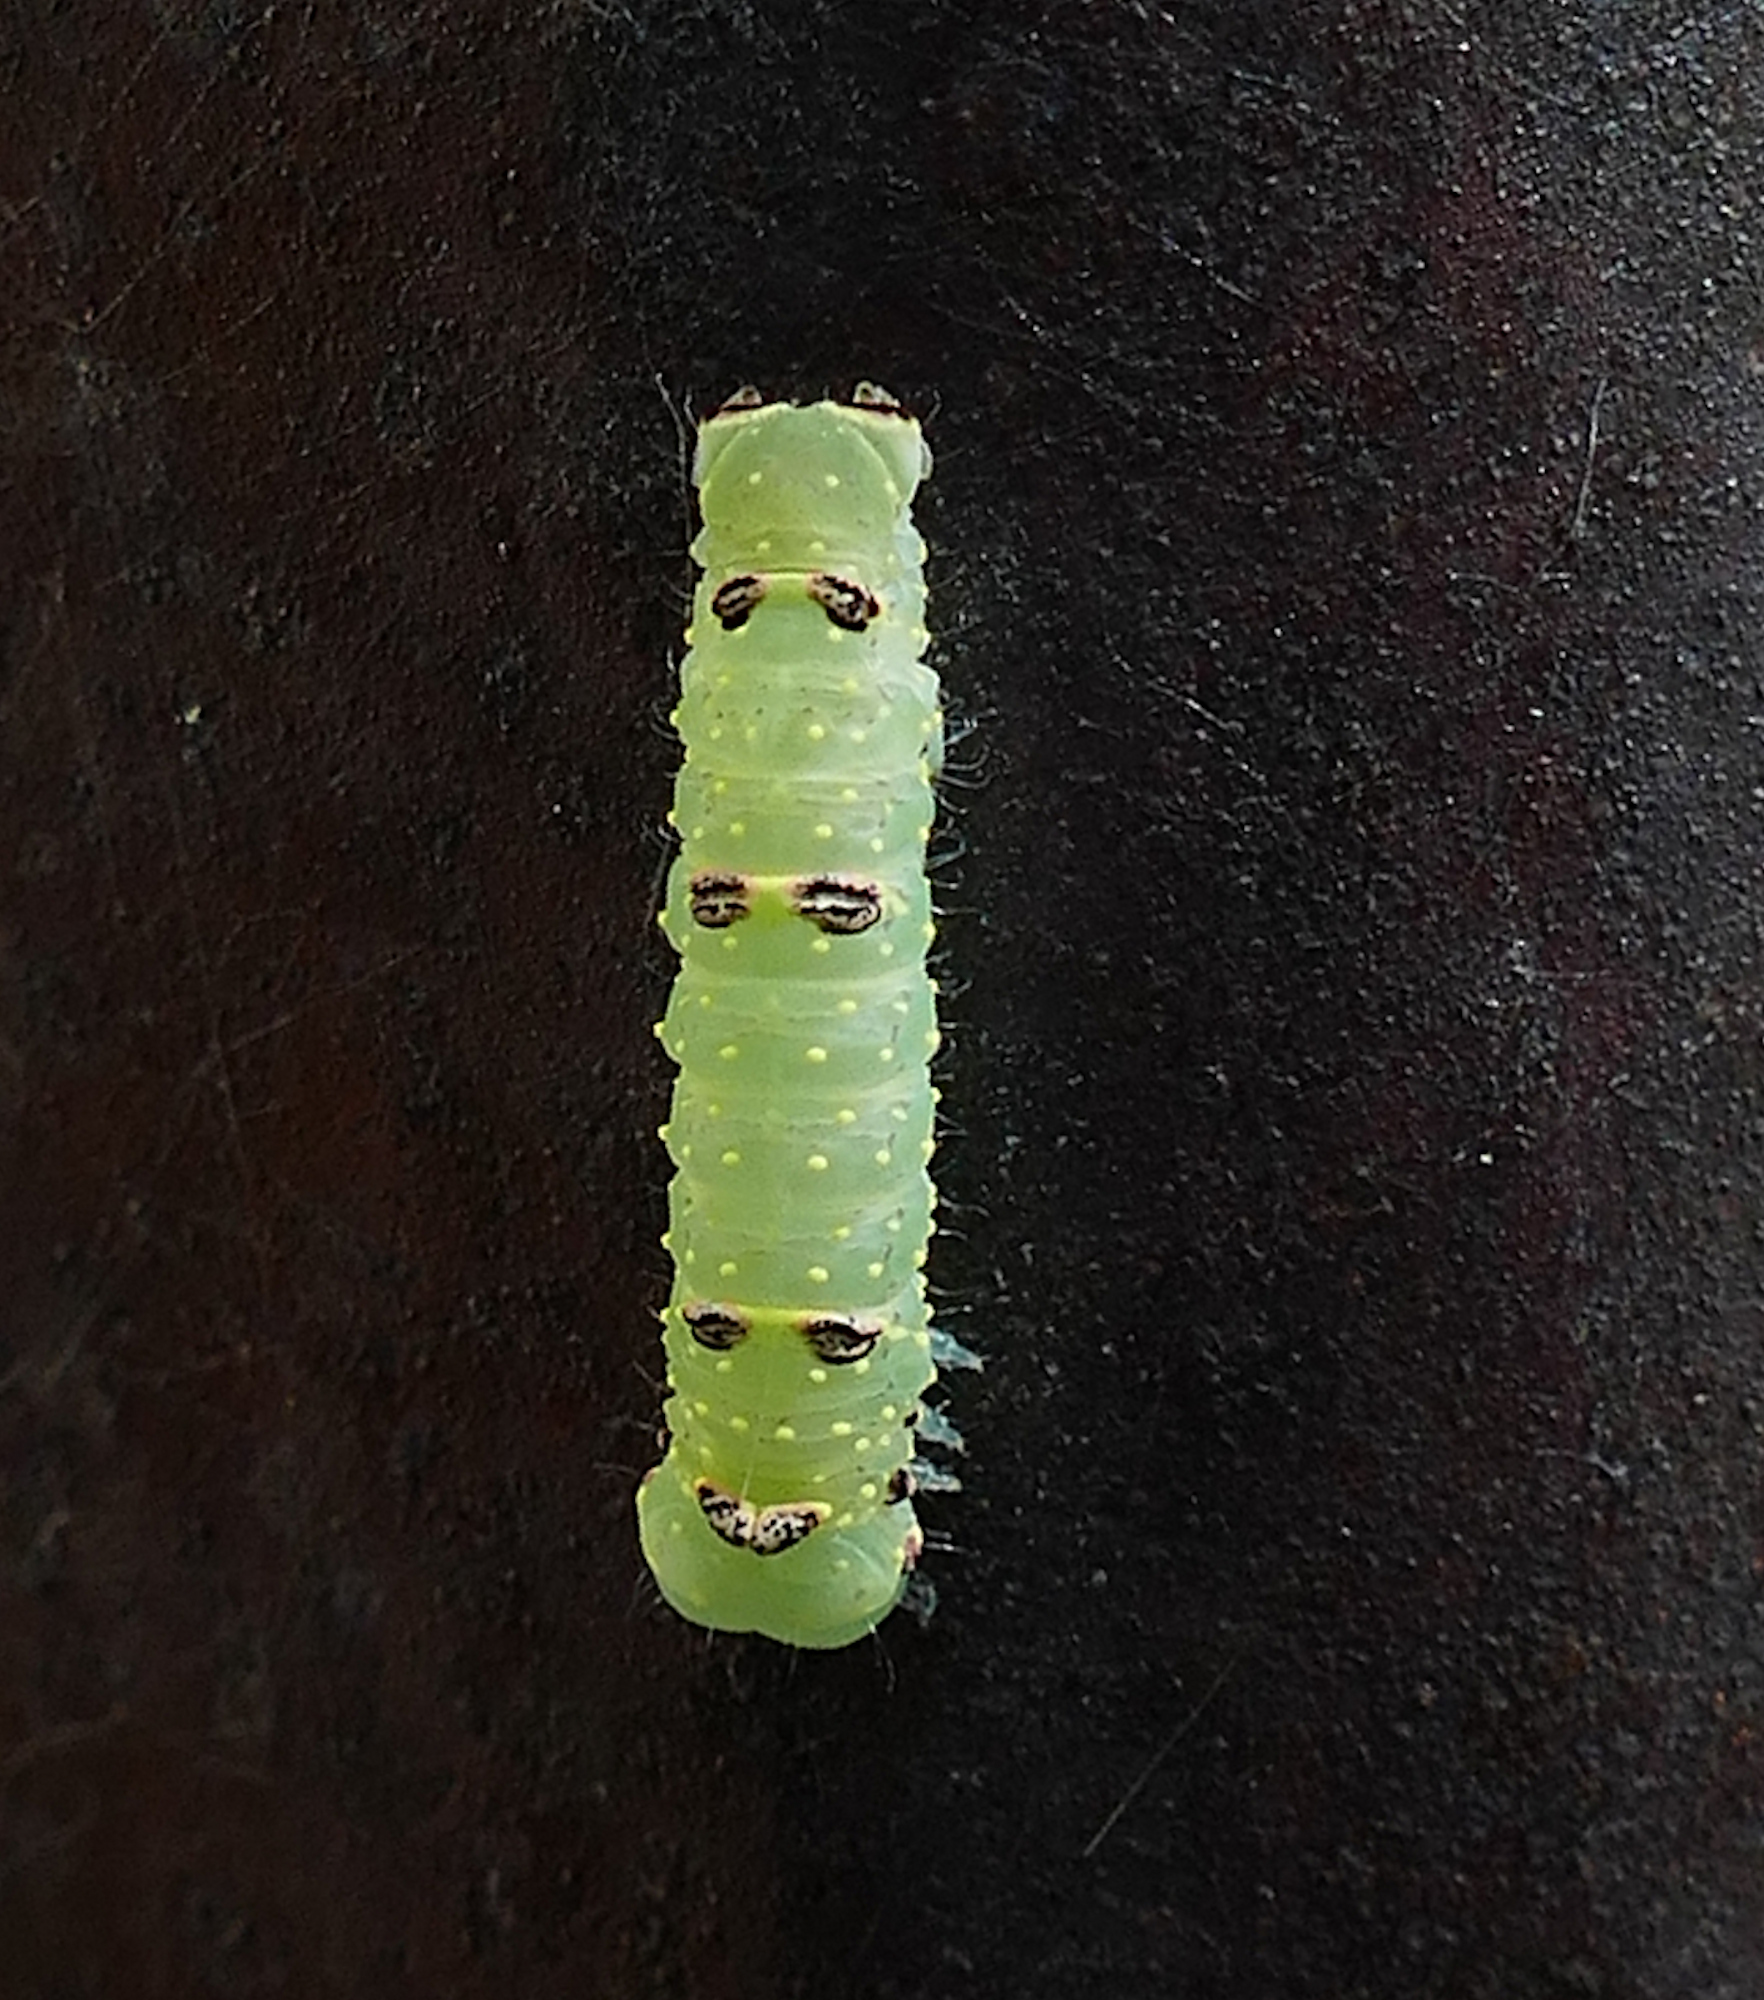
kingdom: Animalia
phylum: Arthropoda
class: Insecta
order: Lepidoptera
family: Noctuidae
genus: Raphia
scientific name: Raphia frater
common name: Brother
